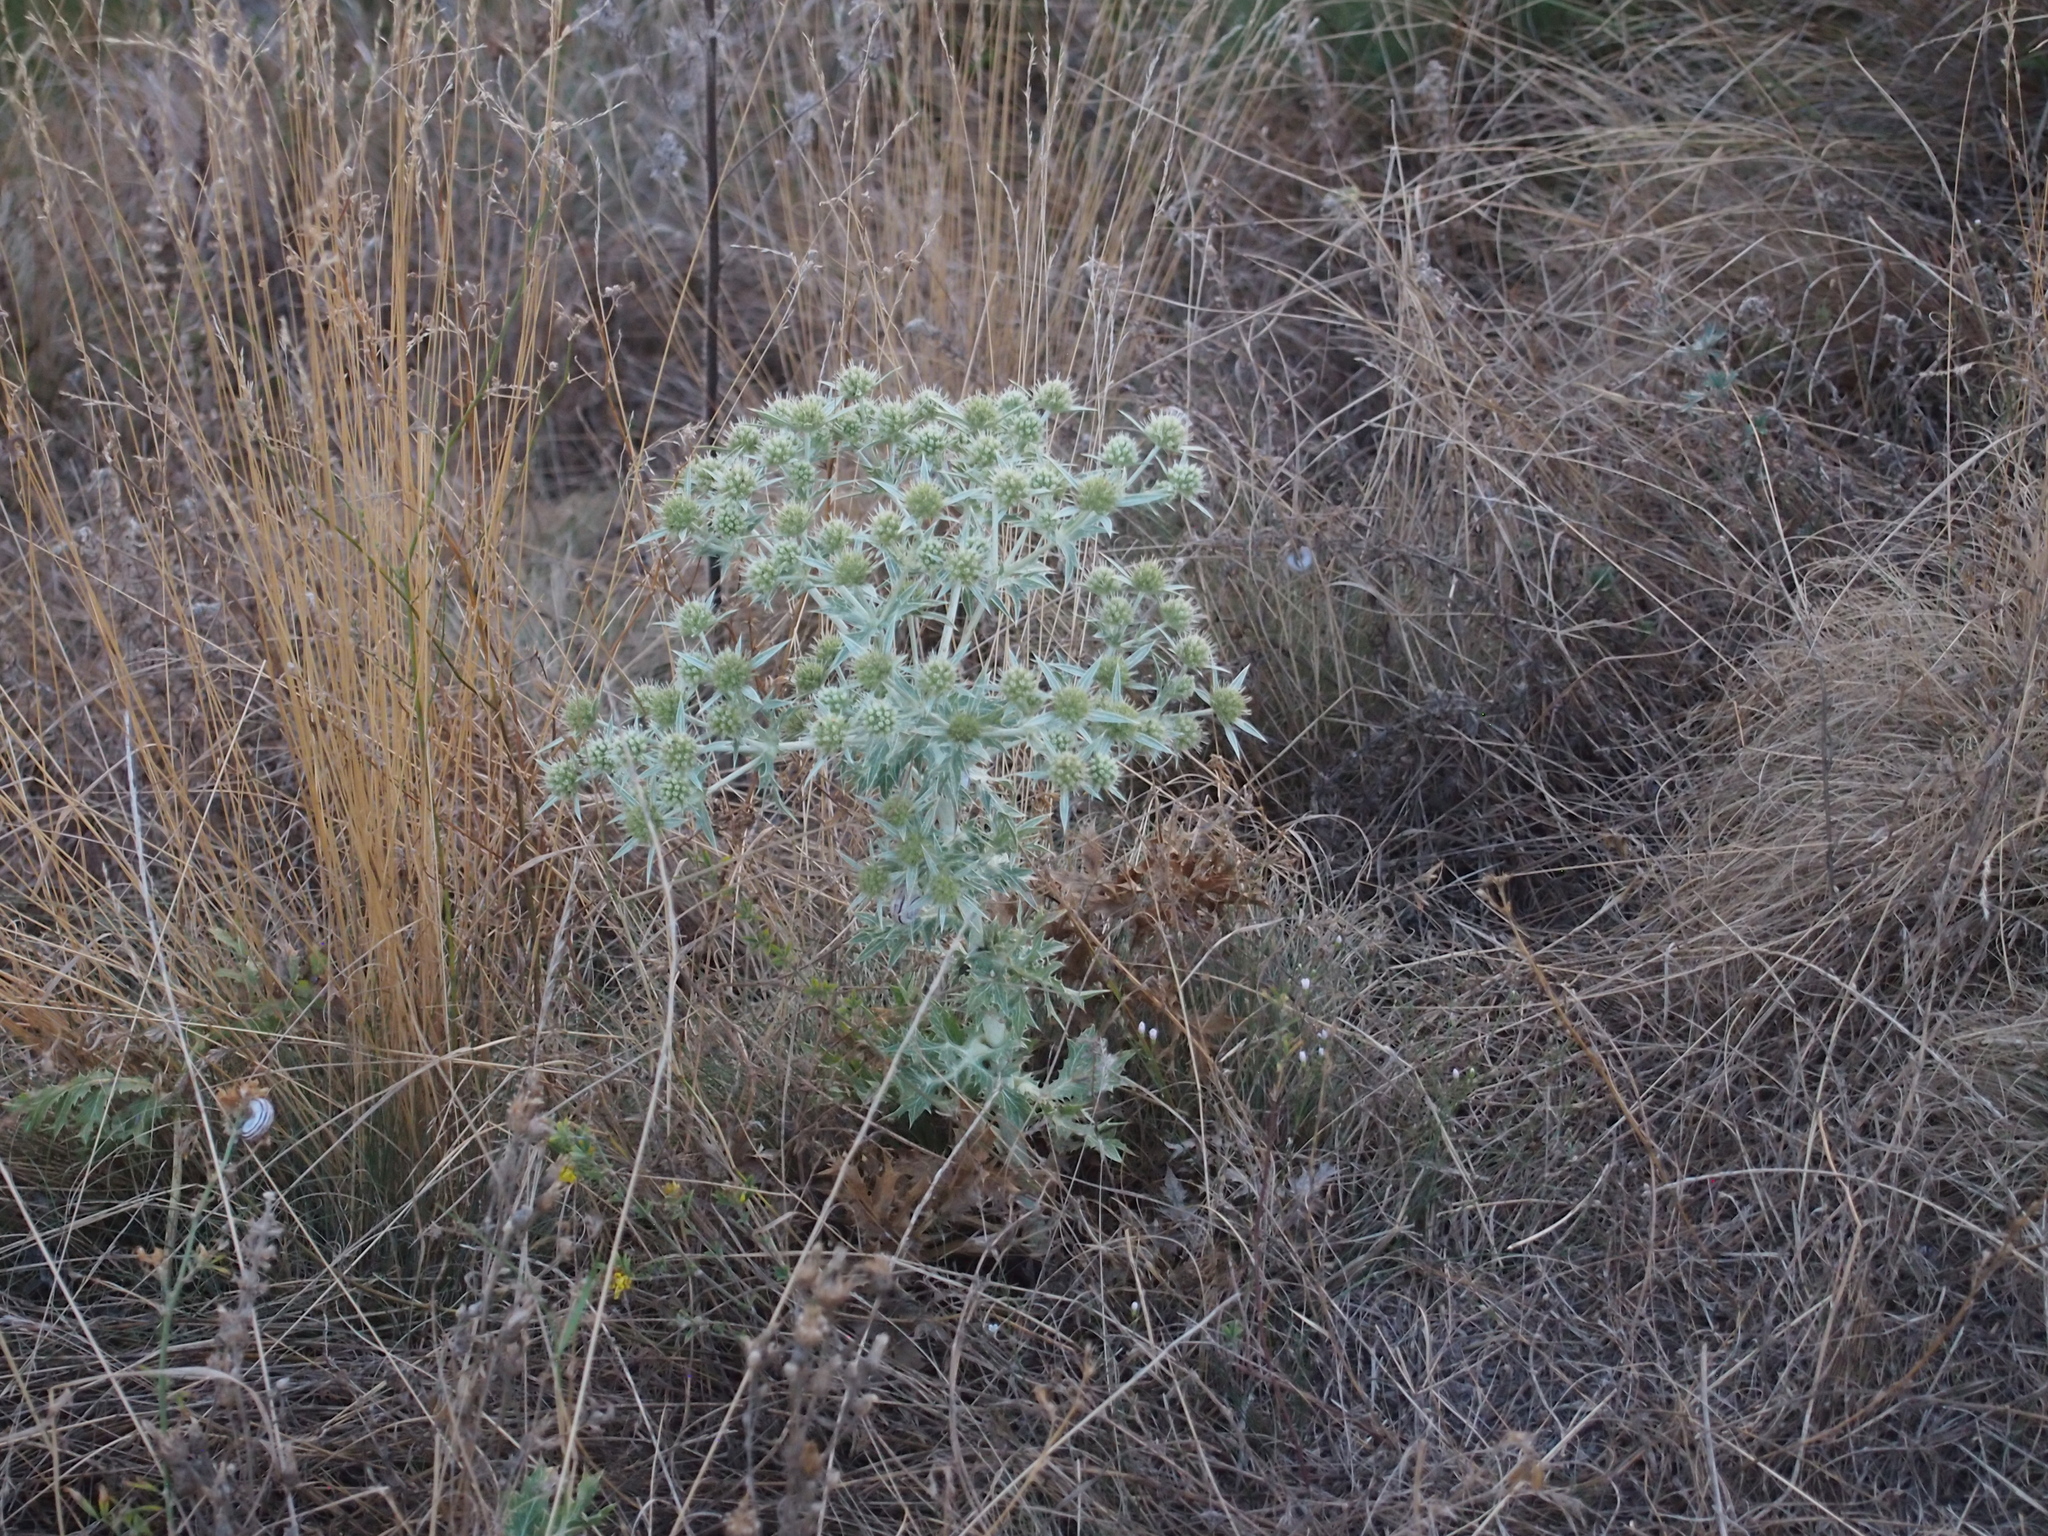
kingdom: Plantae
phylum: Tracheophyta
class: Magnoliopsida
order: Apiales
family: Apiaceae
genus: Eryngium
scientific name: Eryngium campestre
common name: Field eryngo
